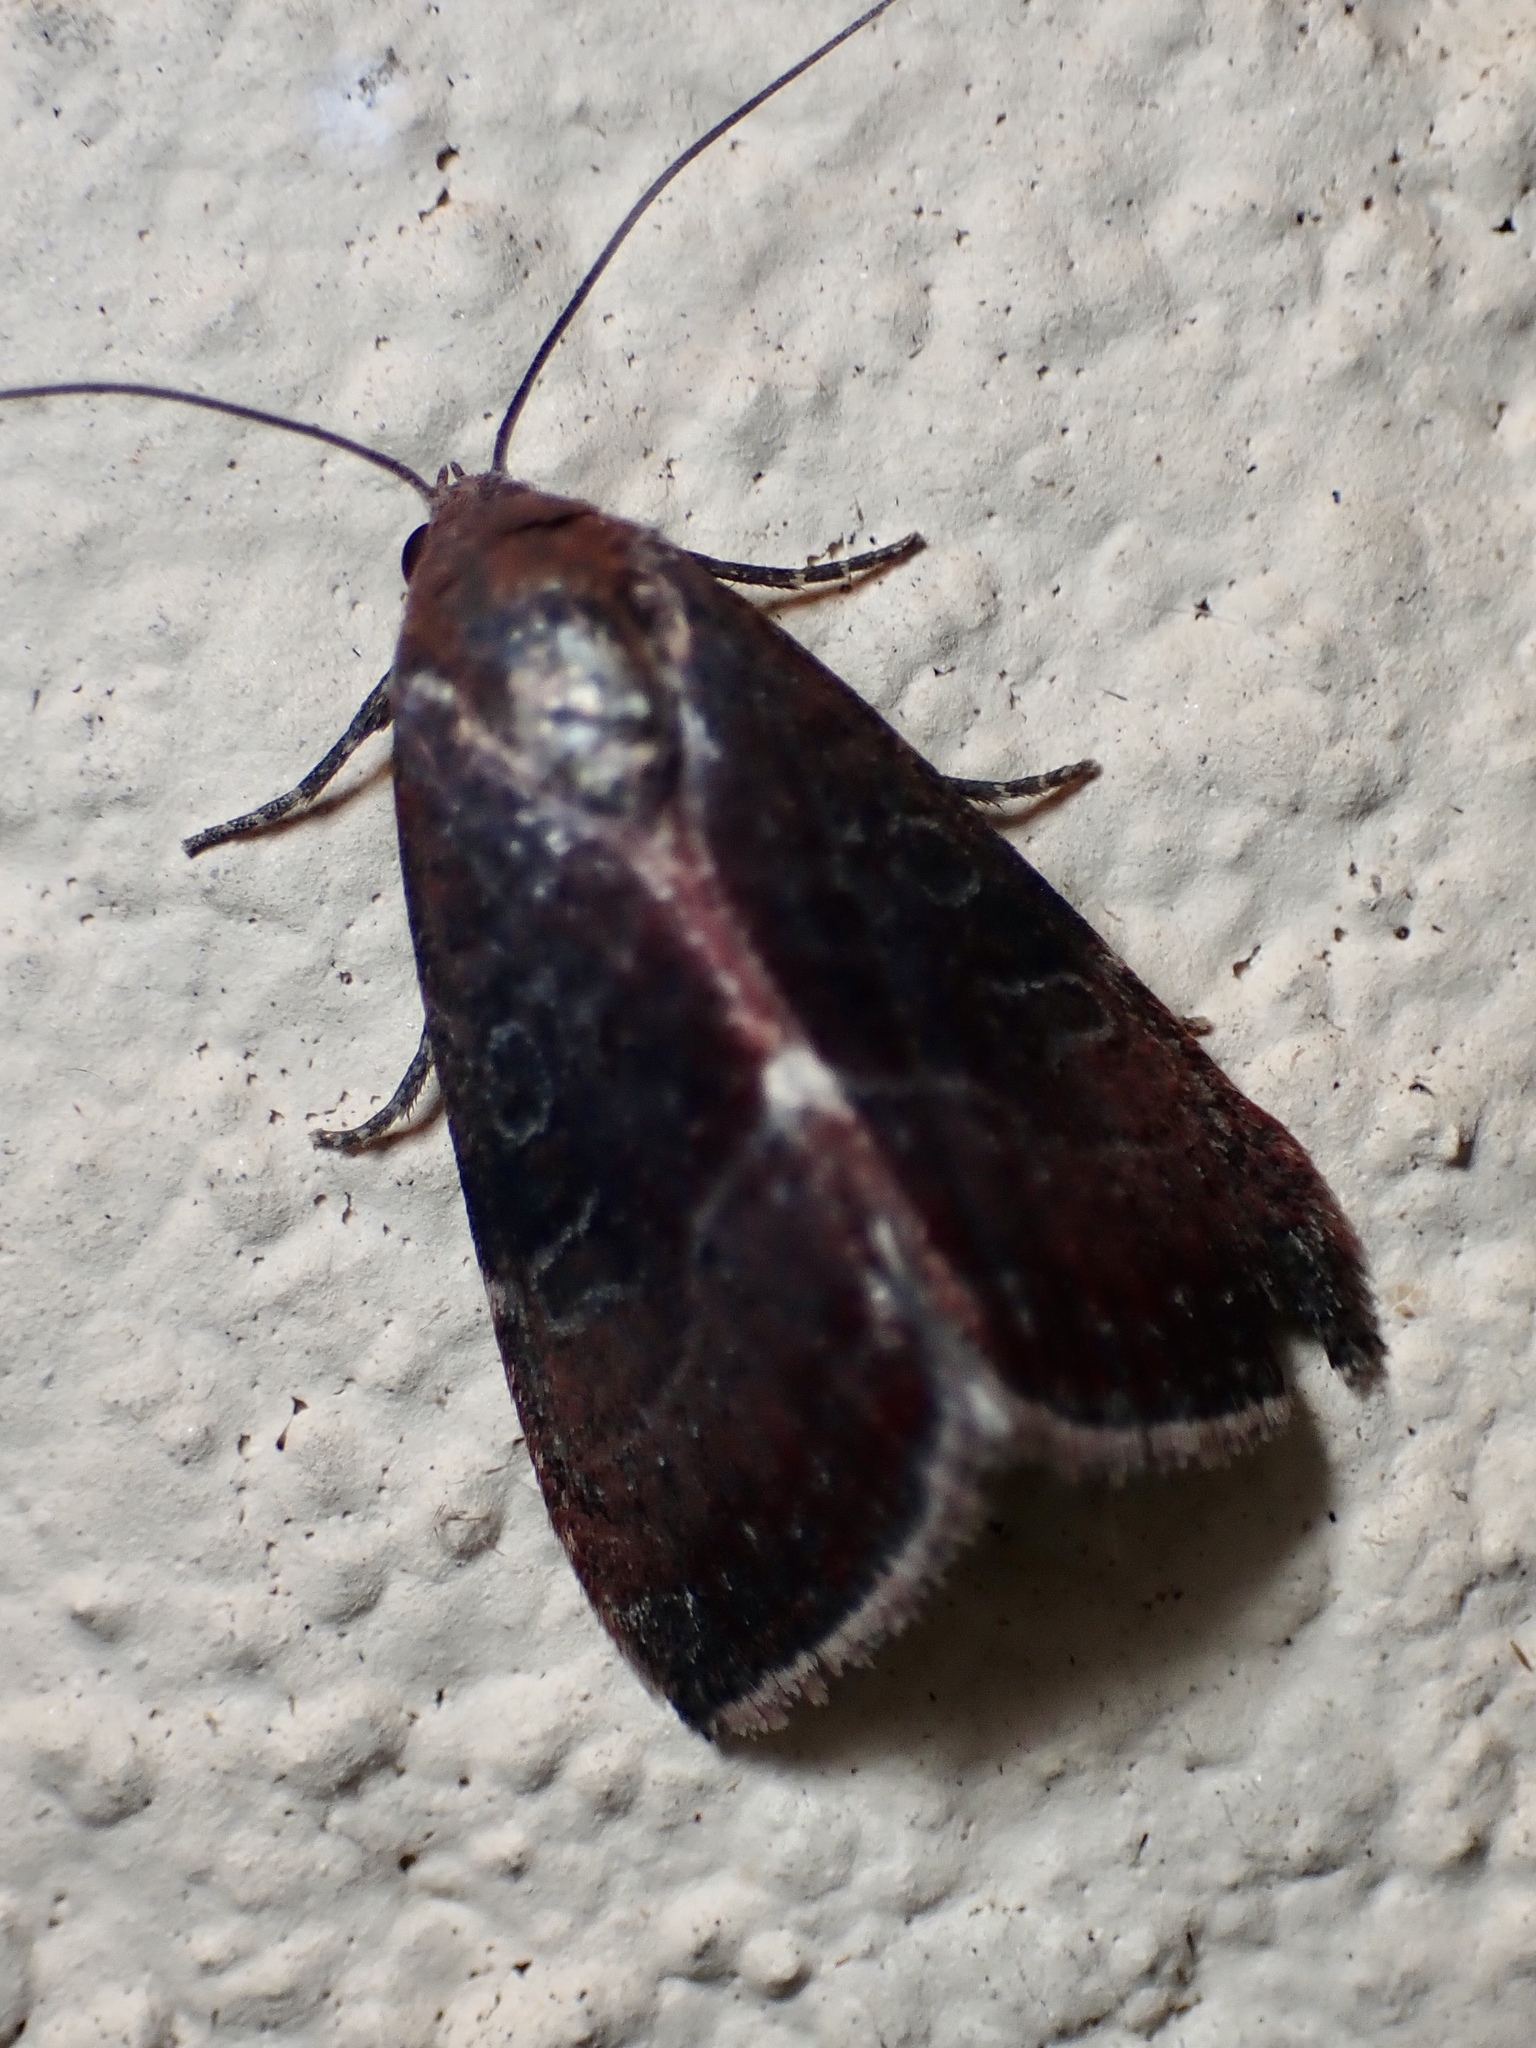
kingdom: Animalia
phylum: Arthropoda
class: Insecta
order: Lepidoptera
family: Noctuidae
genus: Galgula
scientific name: Galgula partita
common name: Wedgeling
